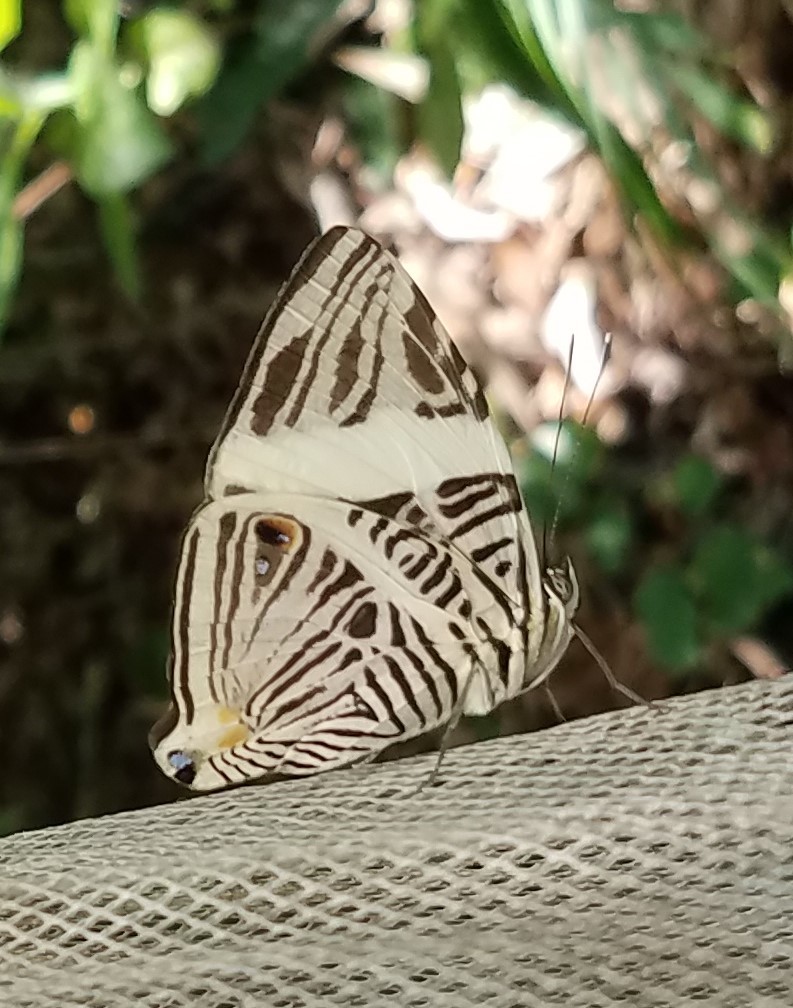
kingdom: Animalia
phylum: Arthropoda
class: Insecta
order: Lepidoptera
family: Nymphalidae
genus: Colobura
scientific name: Colobura dirce
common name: Dirce beauty
